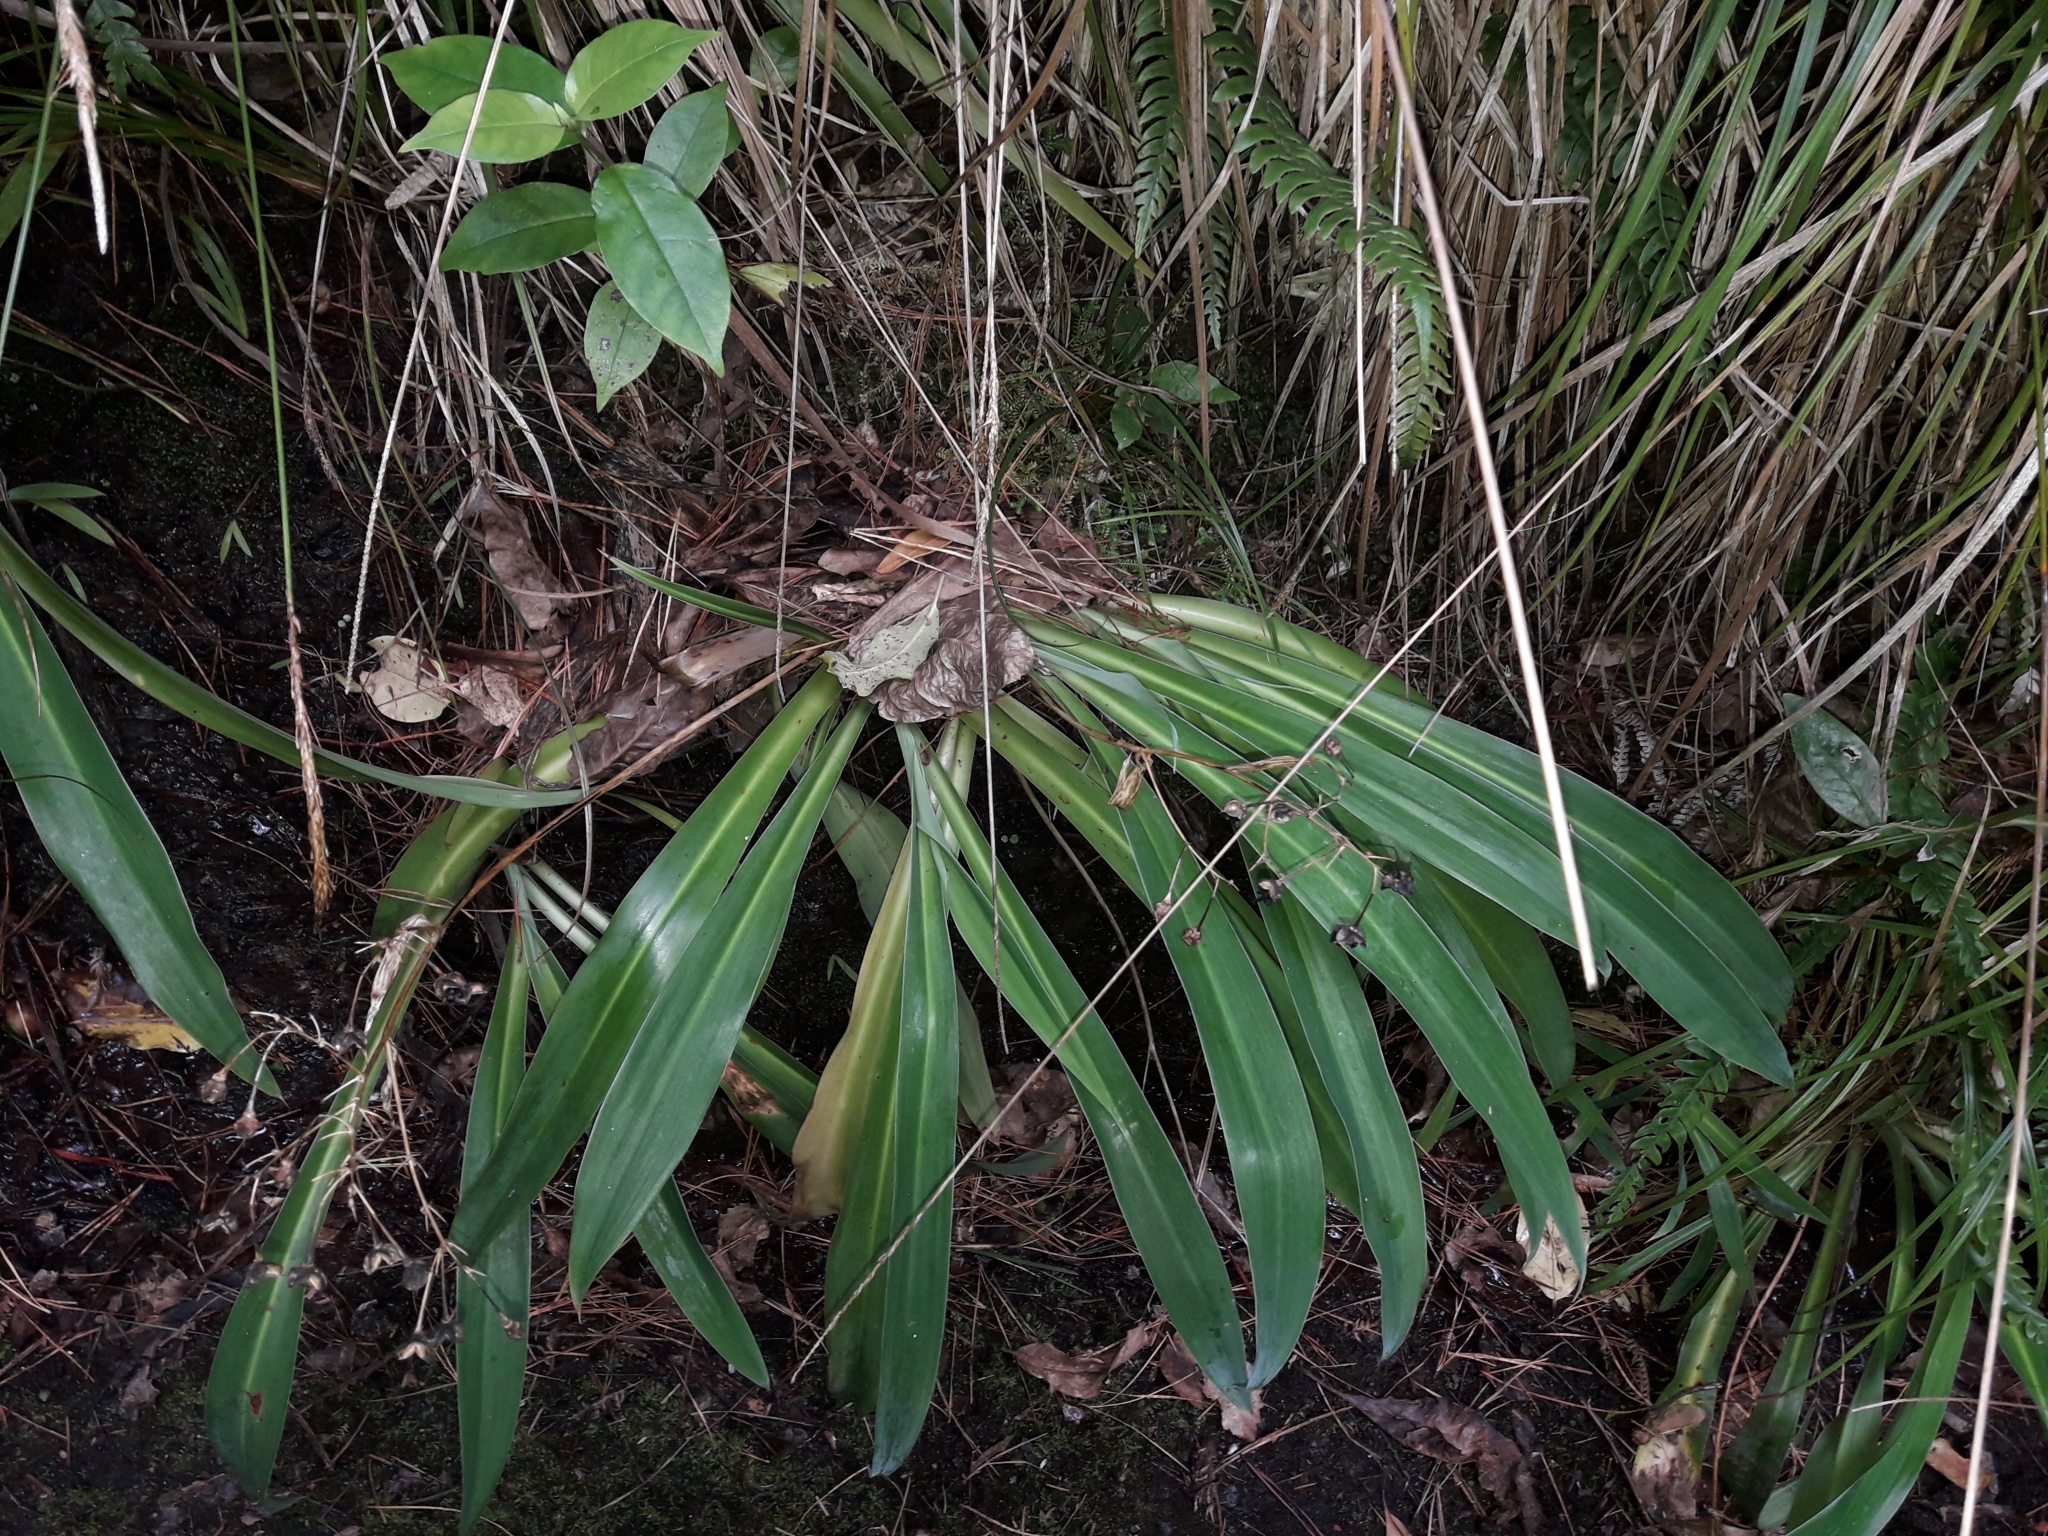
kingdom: Plantae
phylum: Tracheophyta
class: Liliopsida
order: Asparagales
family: Asparagaceae
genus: Arthropodium
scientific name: Arthropodium cirratum
